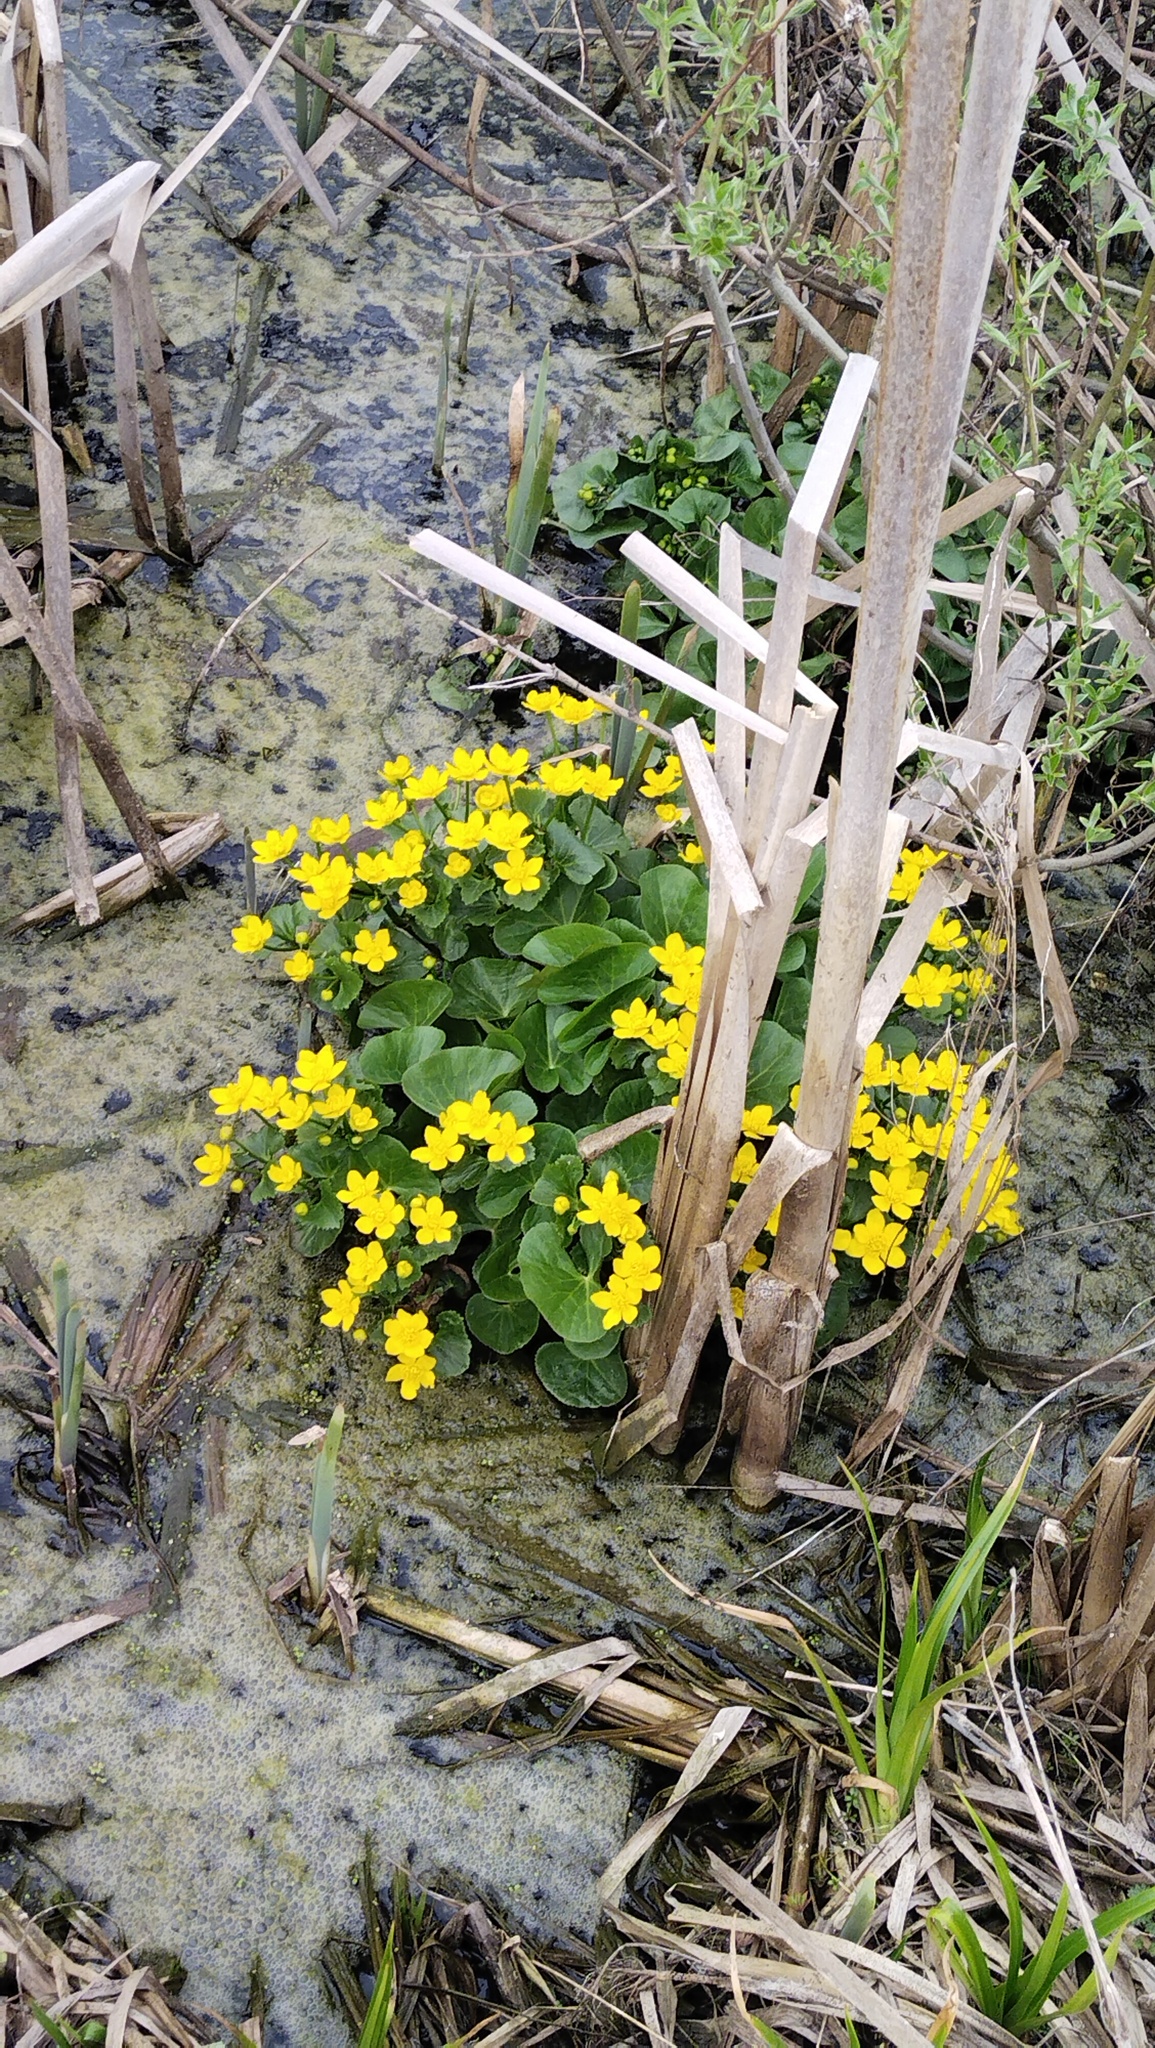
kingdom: Plantae
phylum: Tracheophyta
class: Magnoliopsida
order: Ranunculales
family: Ranunculaceae
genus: Caltha
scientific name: Caltha palustris
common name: Marsh marigold
